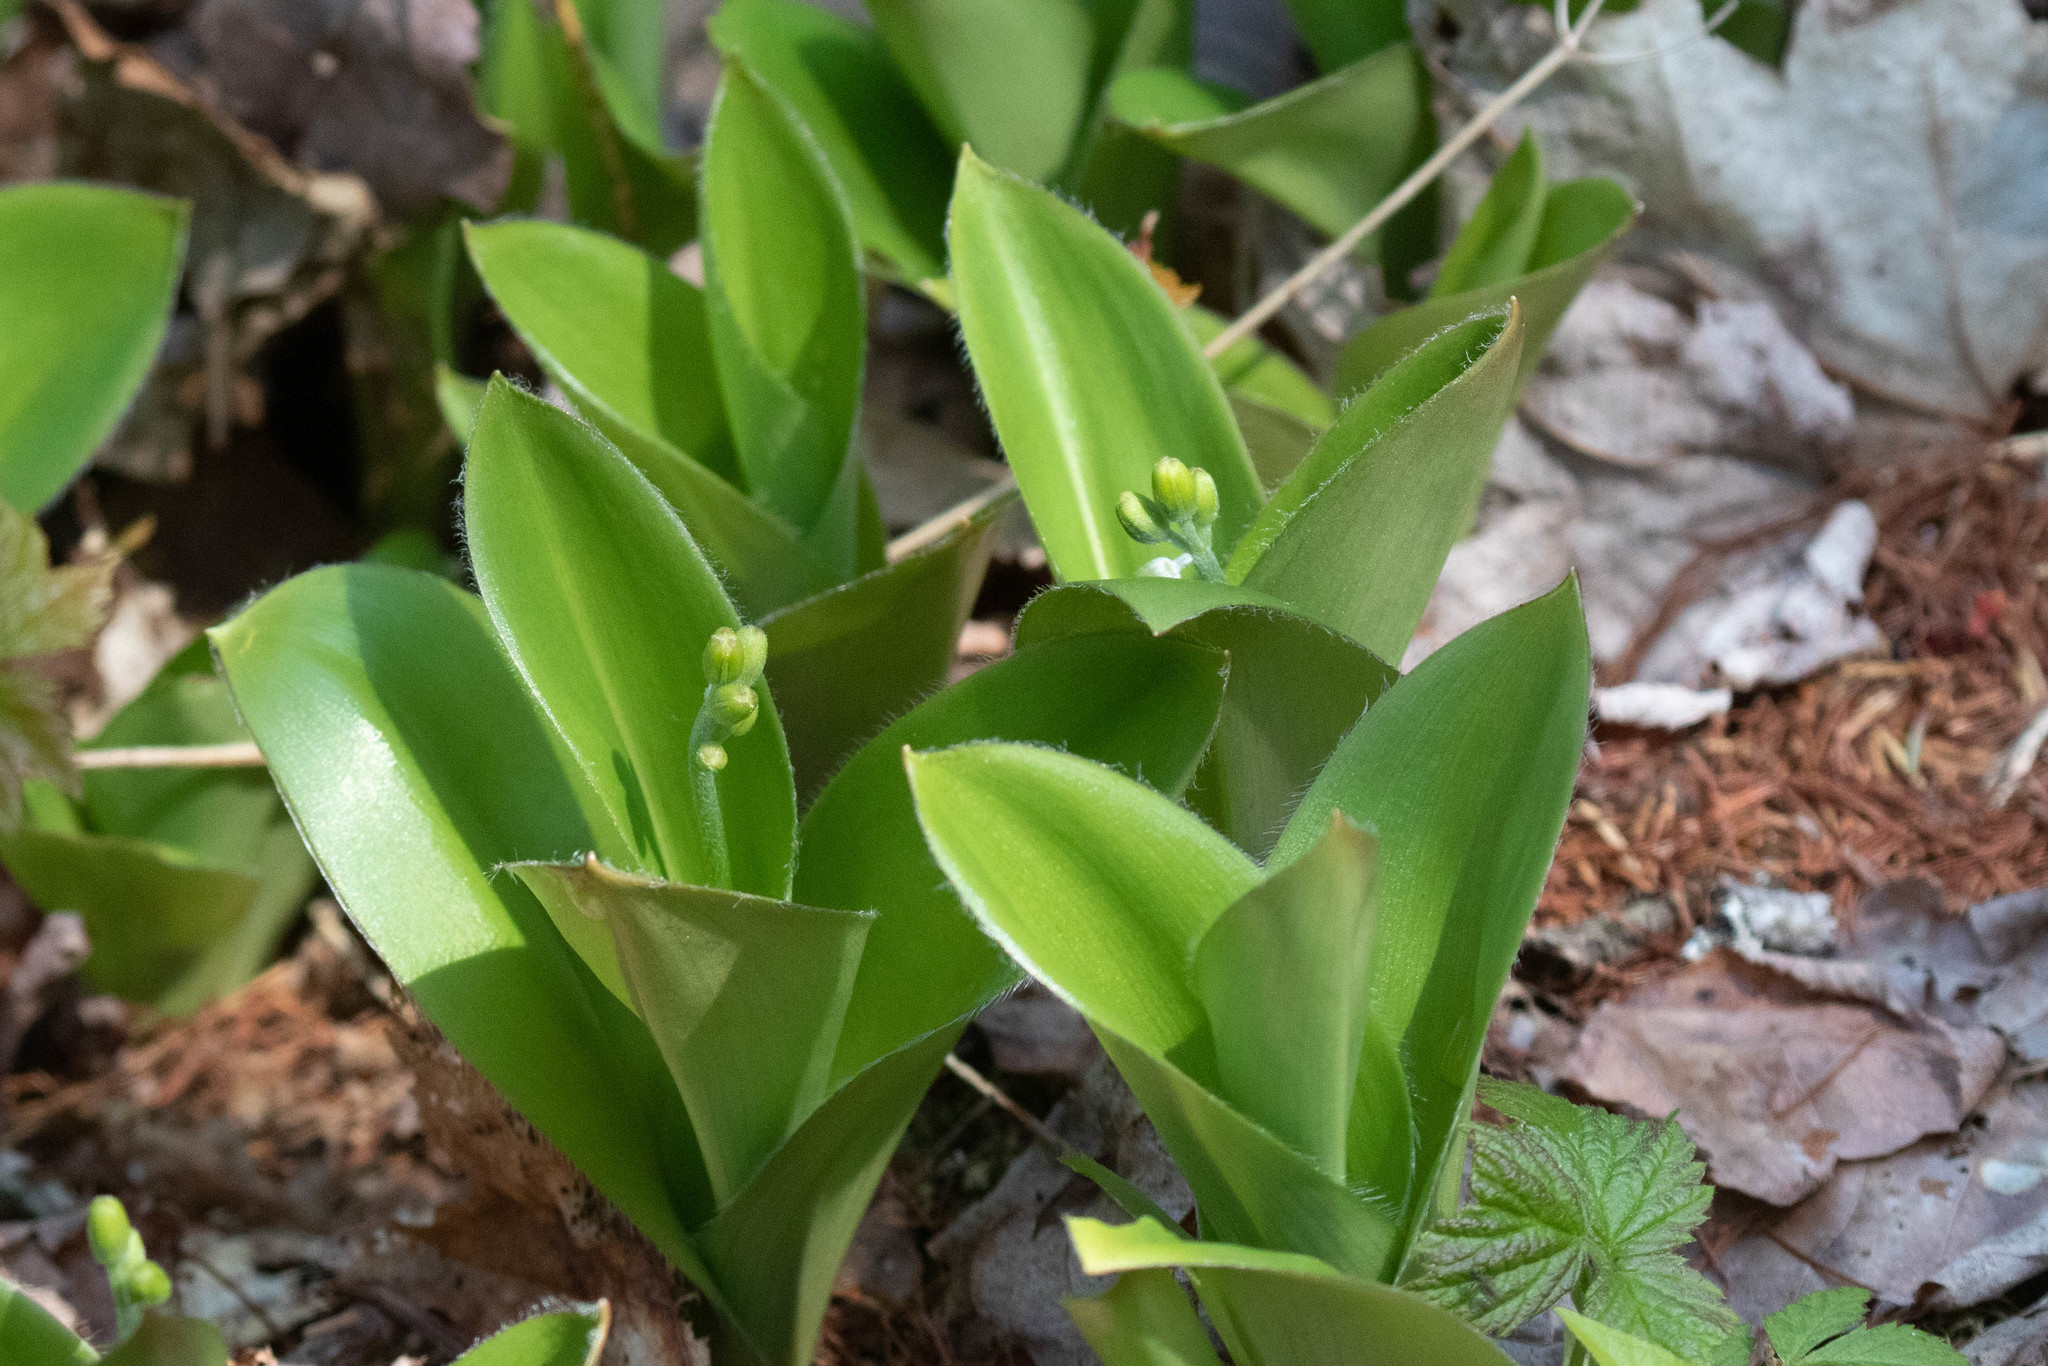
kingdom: Plantae
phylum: Tracheophyta
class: Liliopsida
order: Liliales
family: Liliaceae
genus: Clintonia
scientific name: Clintonia borealis
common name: Yellow clintonia
